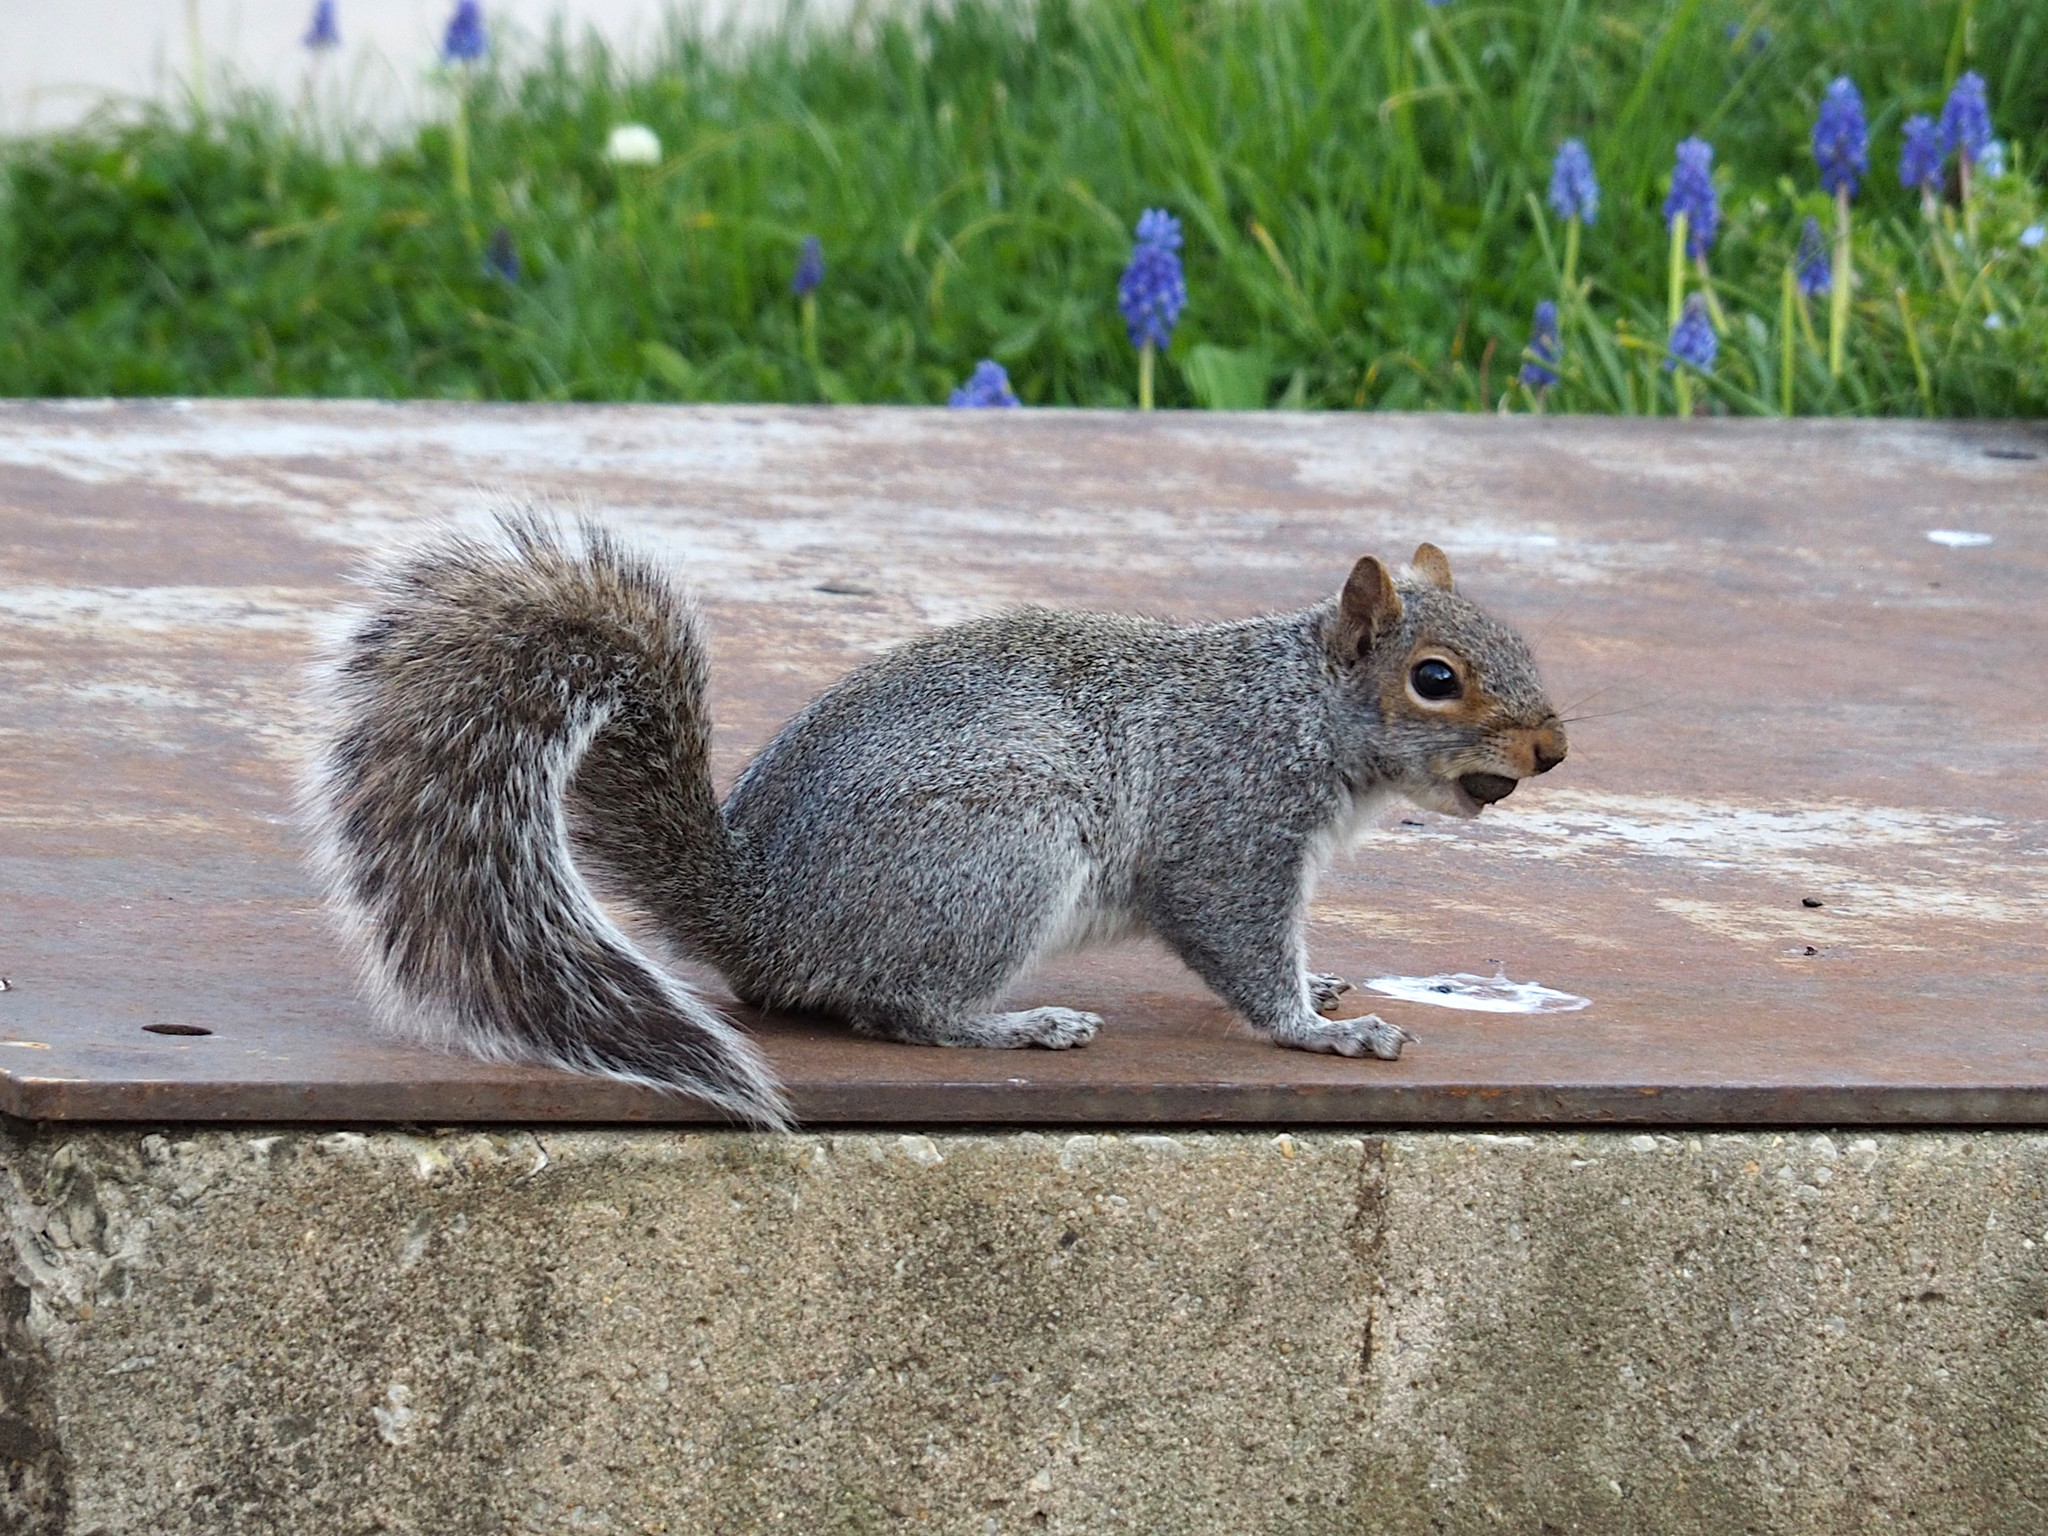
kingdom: Animalia
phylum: Chordata
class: Mammalia
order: Rodentia
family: Sciuridae
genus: Sciurus
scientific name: Sciurus carolinensis
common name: Eastern gray squirrel
